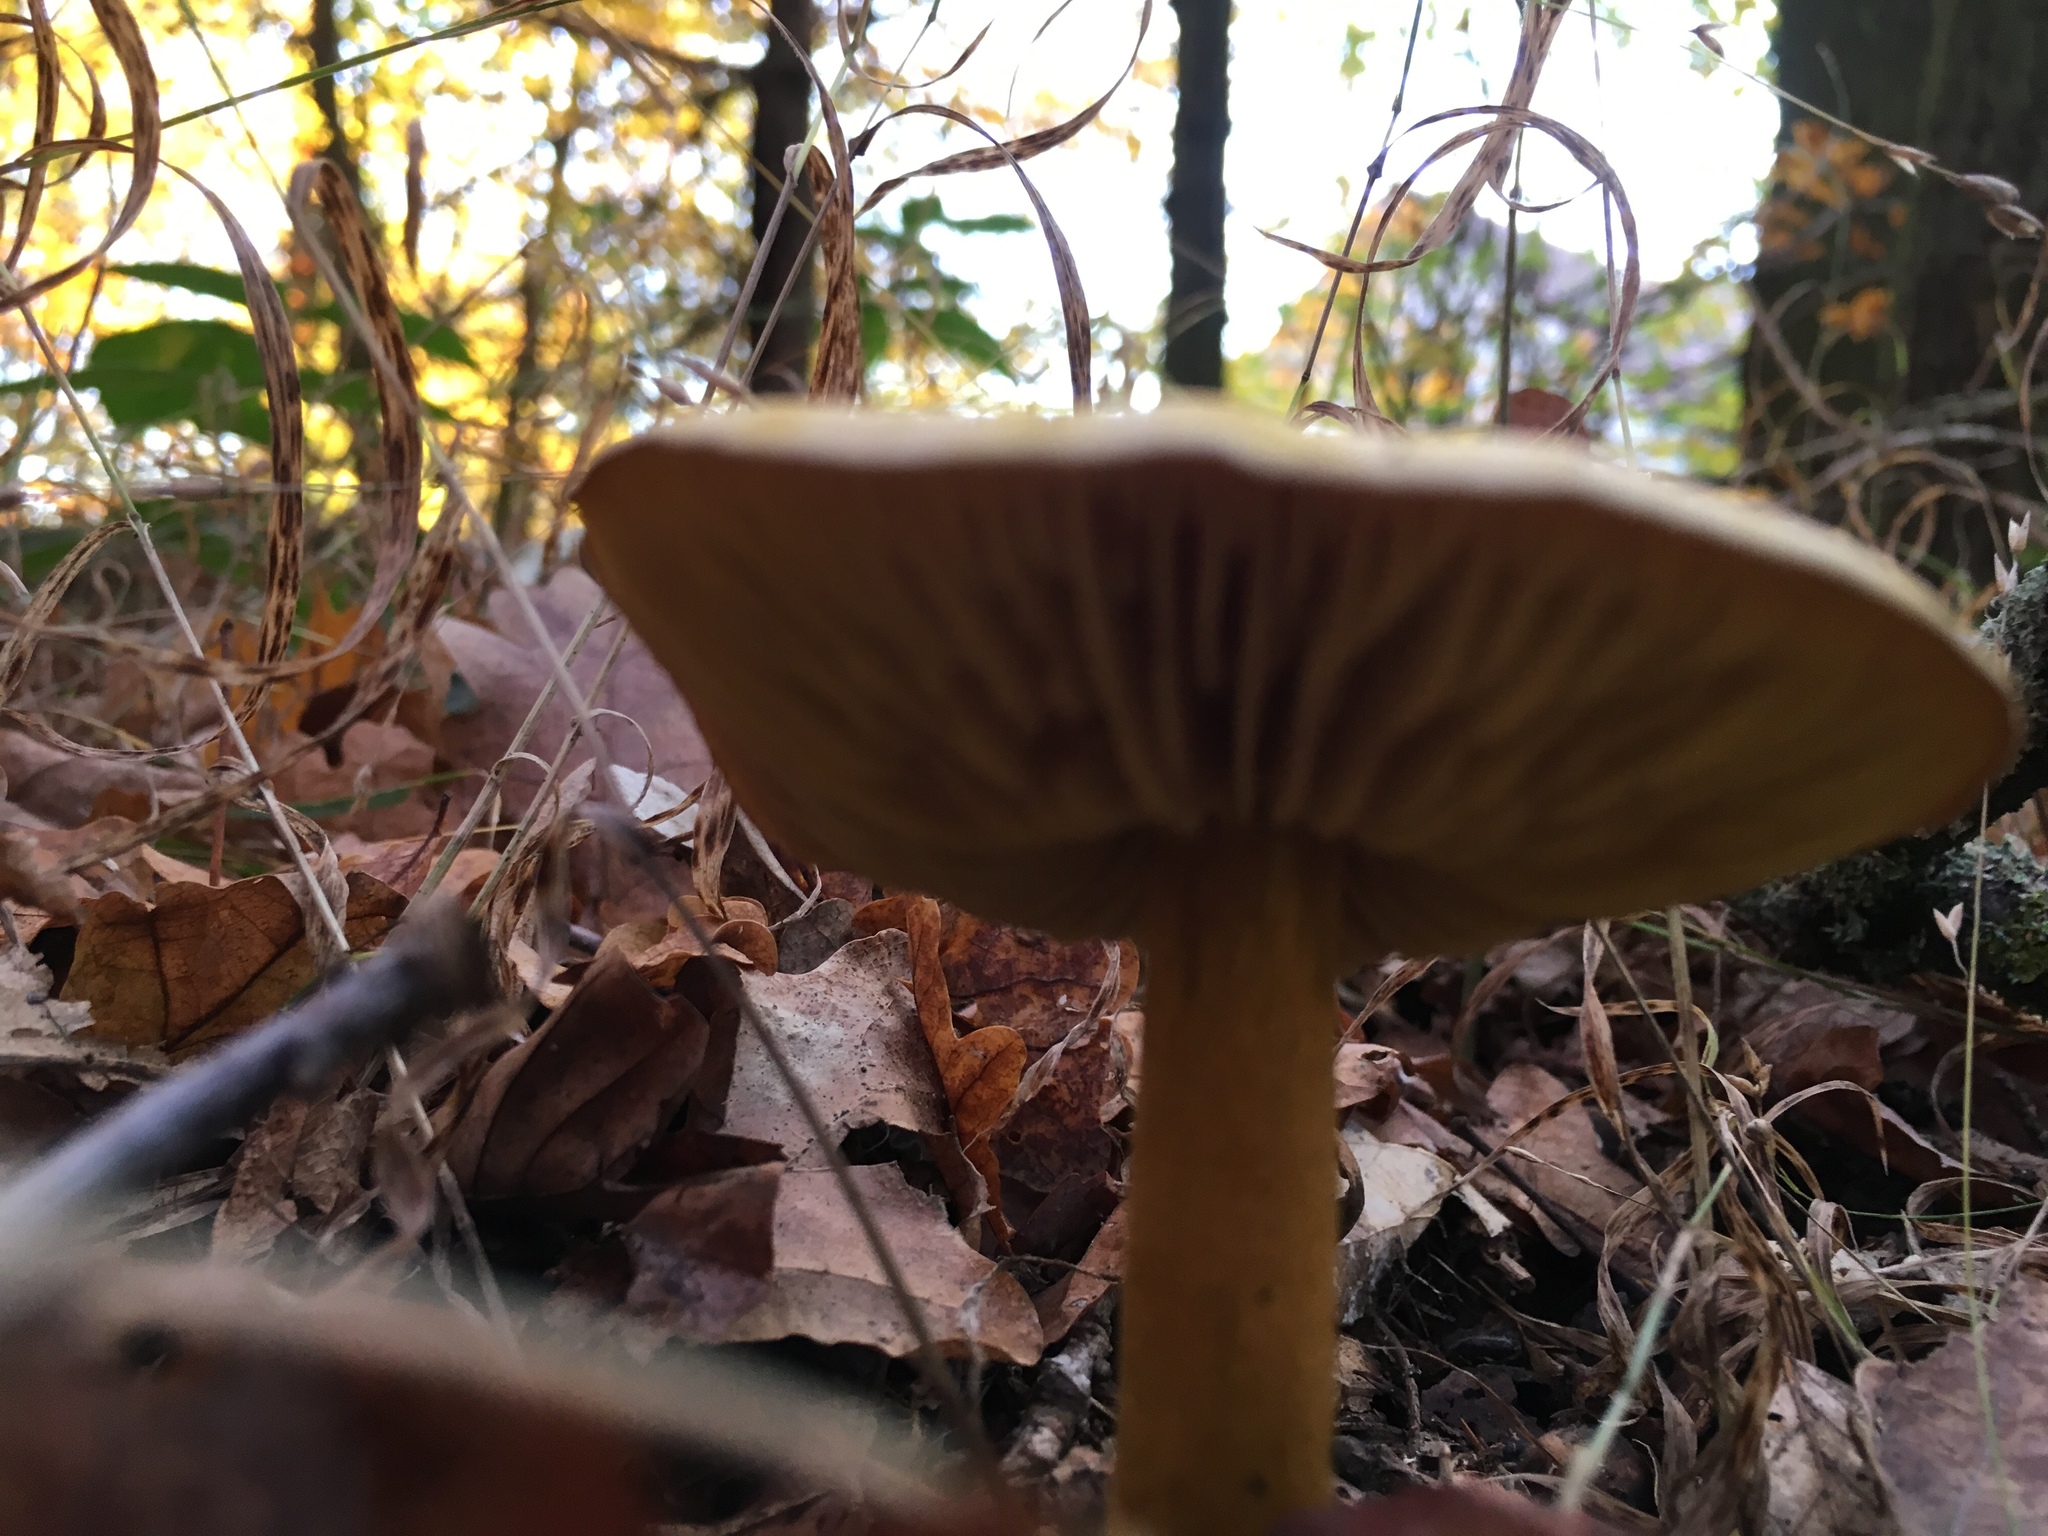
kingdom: Fungi
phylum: Basidiomycota
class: Agaricomycetes
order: Agaricales
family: Tricholomataceae
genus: Tricholoma
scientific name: Tricholoma sulphureum
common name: Stinky knight
